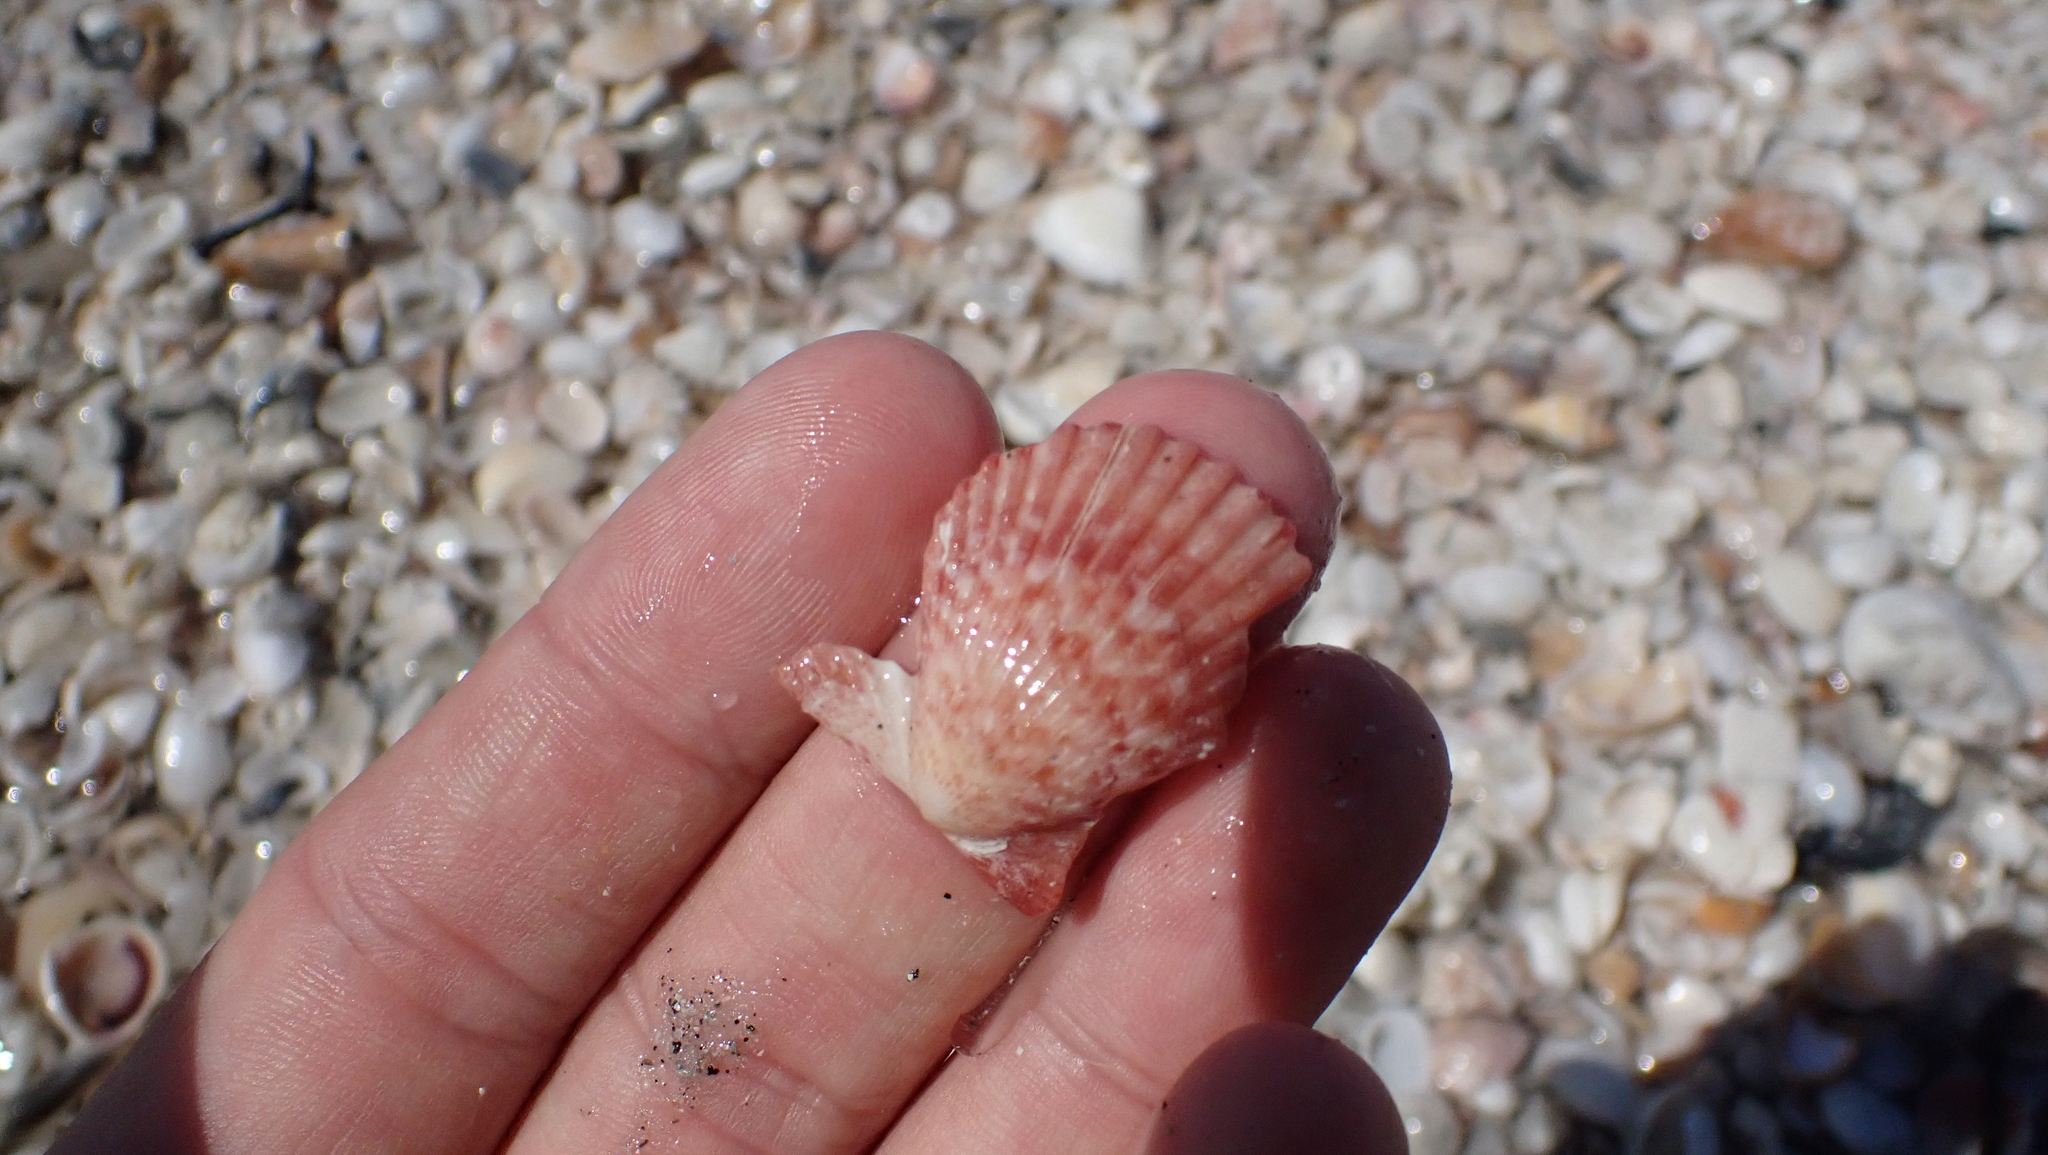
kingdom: Animalia
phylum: Mollusca
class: Bivalvia
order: Pectinida
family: Pectinidae
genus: Lindapecten
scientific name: Lindapecten muscosus
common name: Rough scallop
